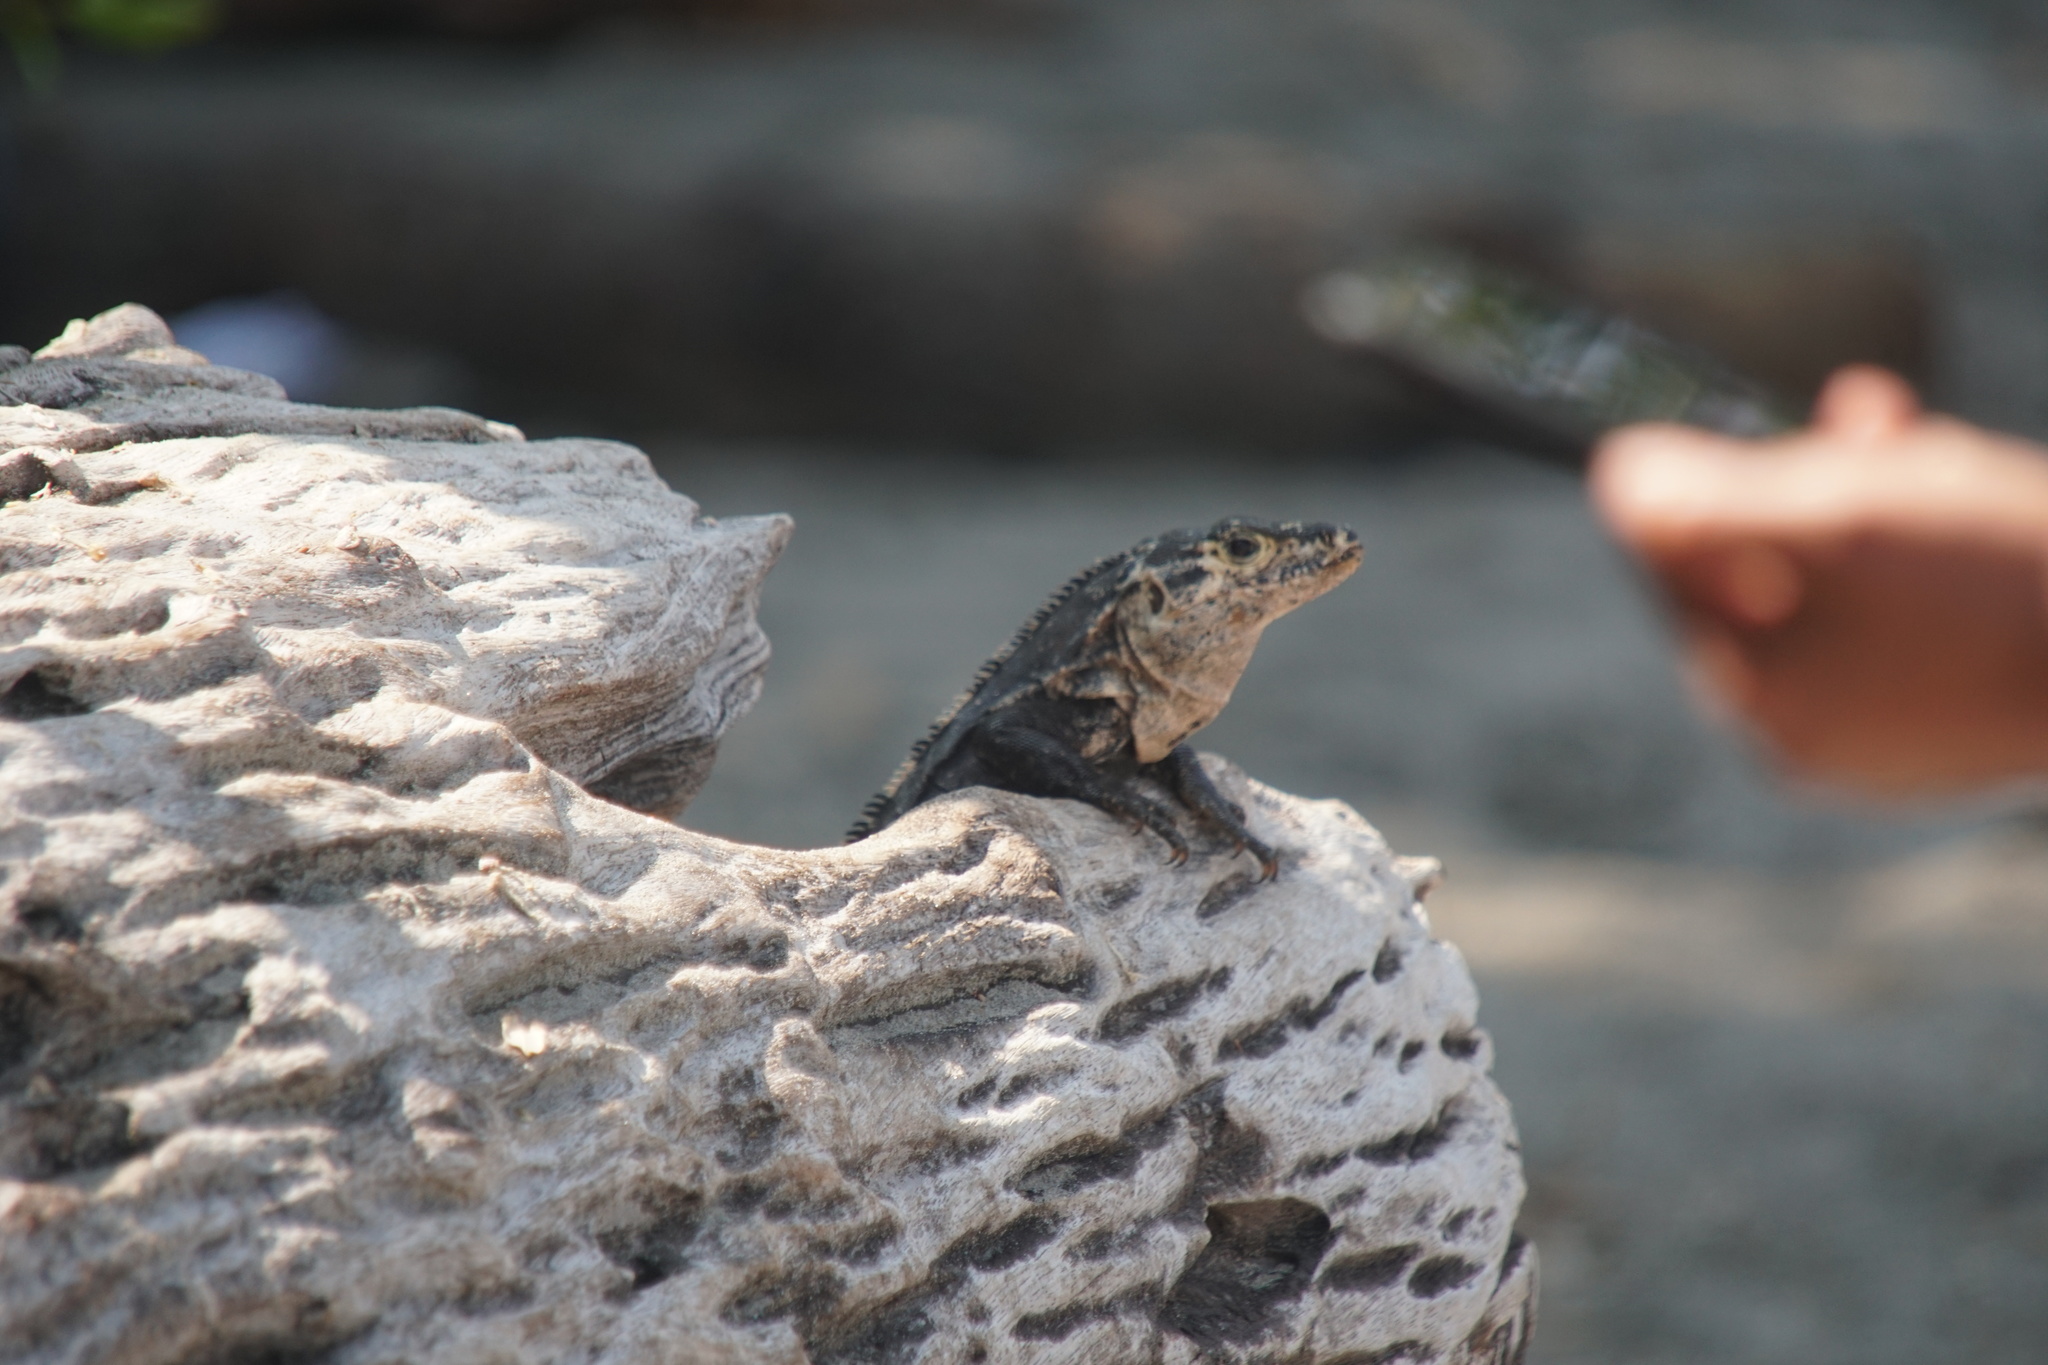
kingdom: Animalia
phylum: Chordata
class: Squamata
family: Iguanidae
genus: Ctenosaura
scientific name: Ctenosaura similis
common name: Black spiny-tailed iguana
